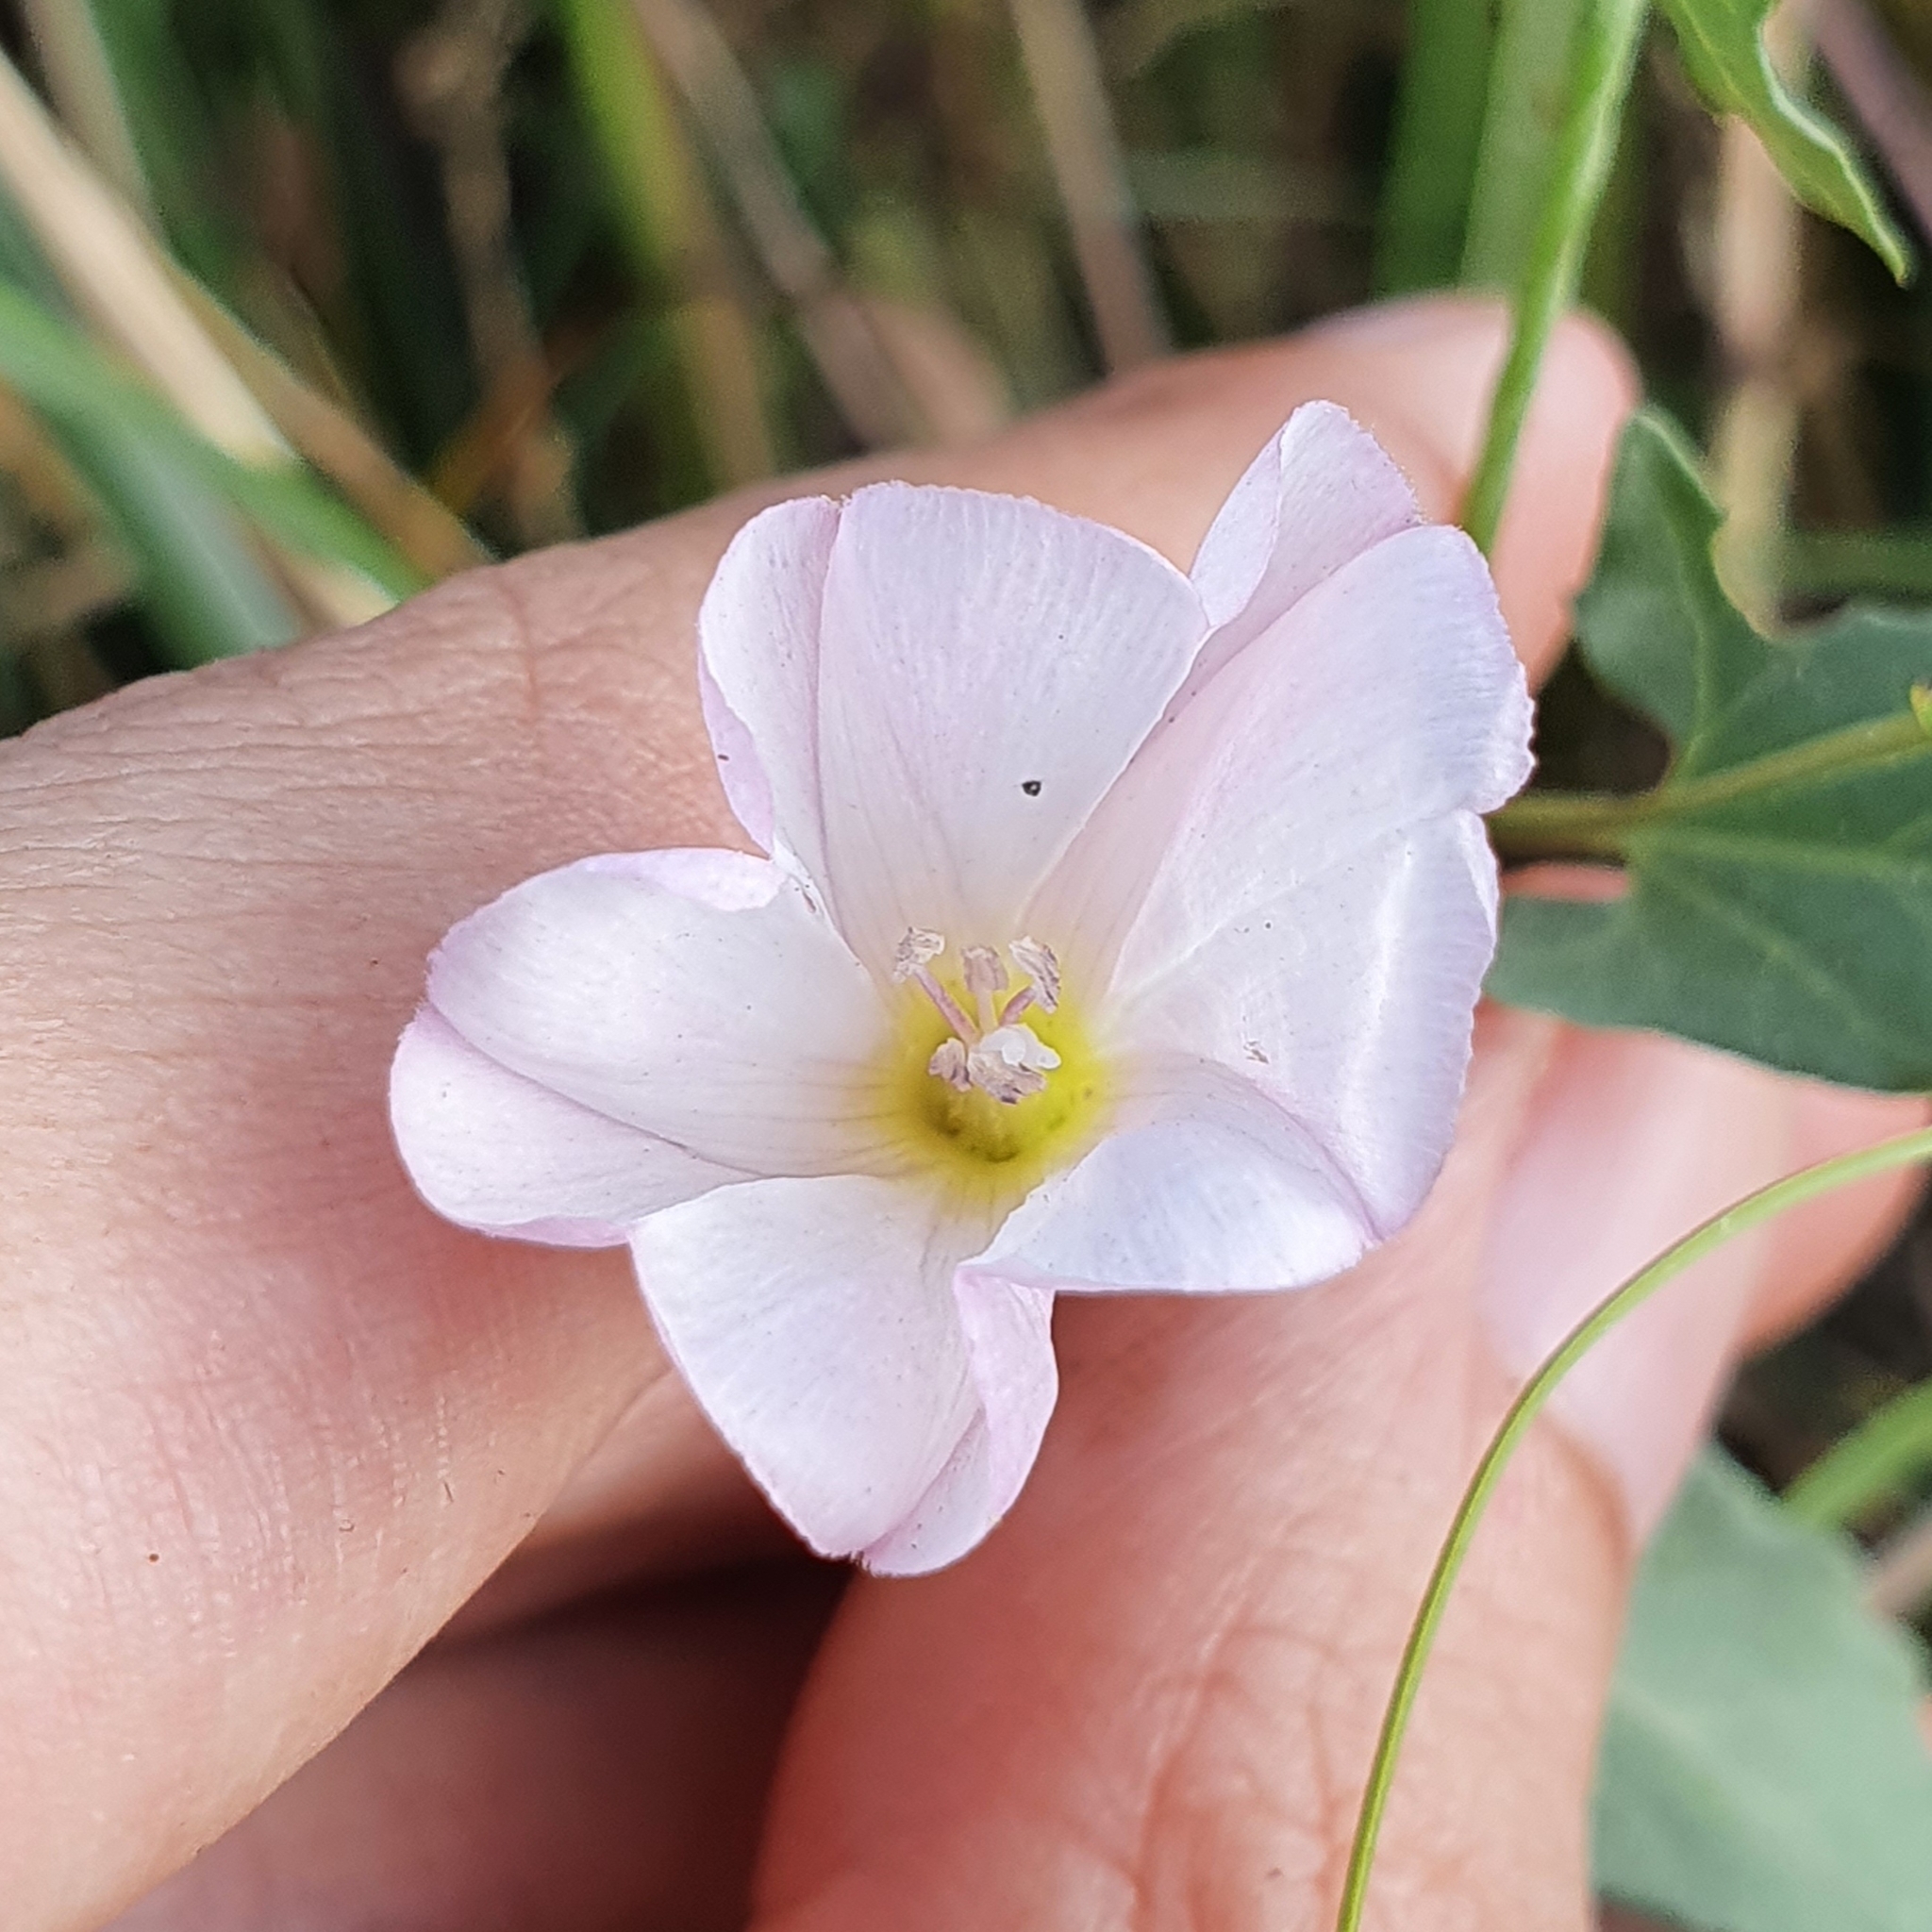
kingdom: Plantae
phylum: Tracheophyta
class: Magnoliopsida
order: Solanales
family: Convolvulaceae
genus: Convolvulus
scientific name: Convolvulus arvensis
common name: Field bindweed
